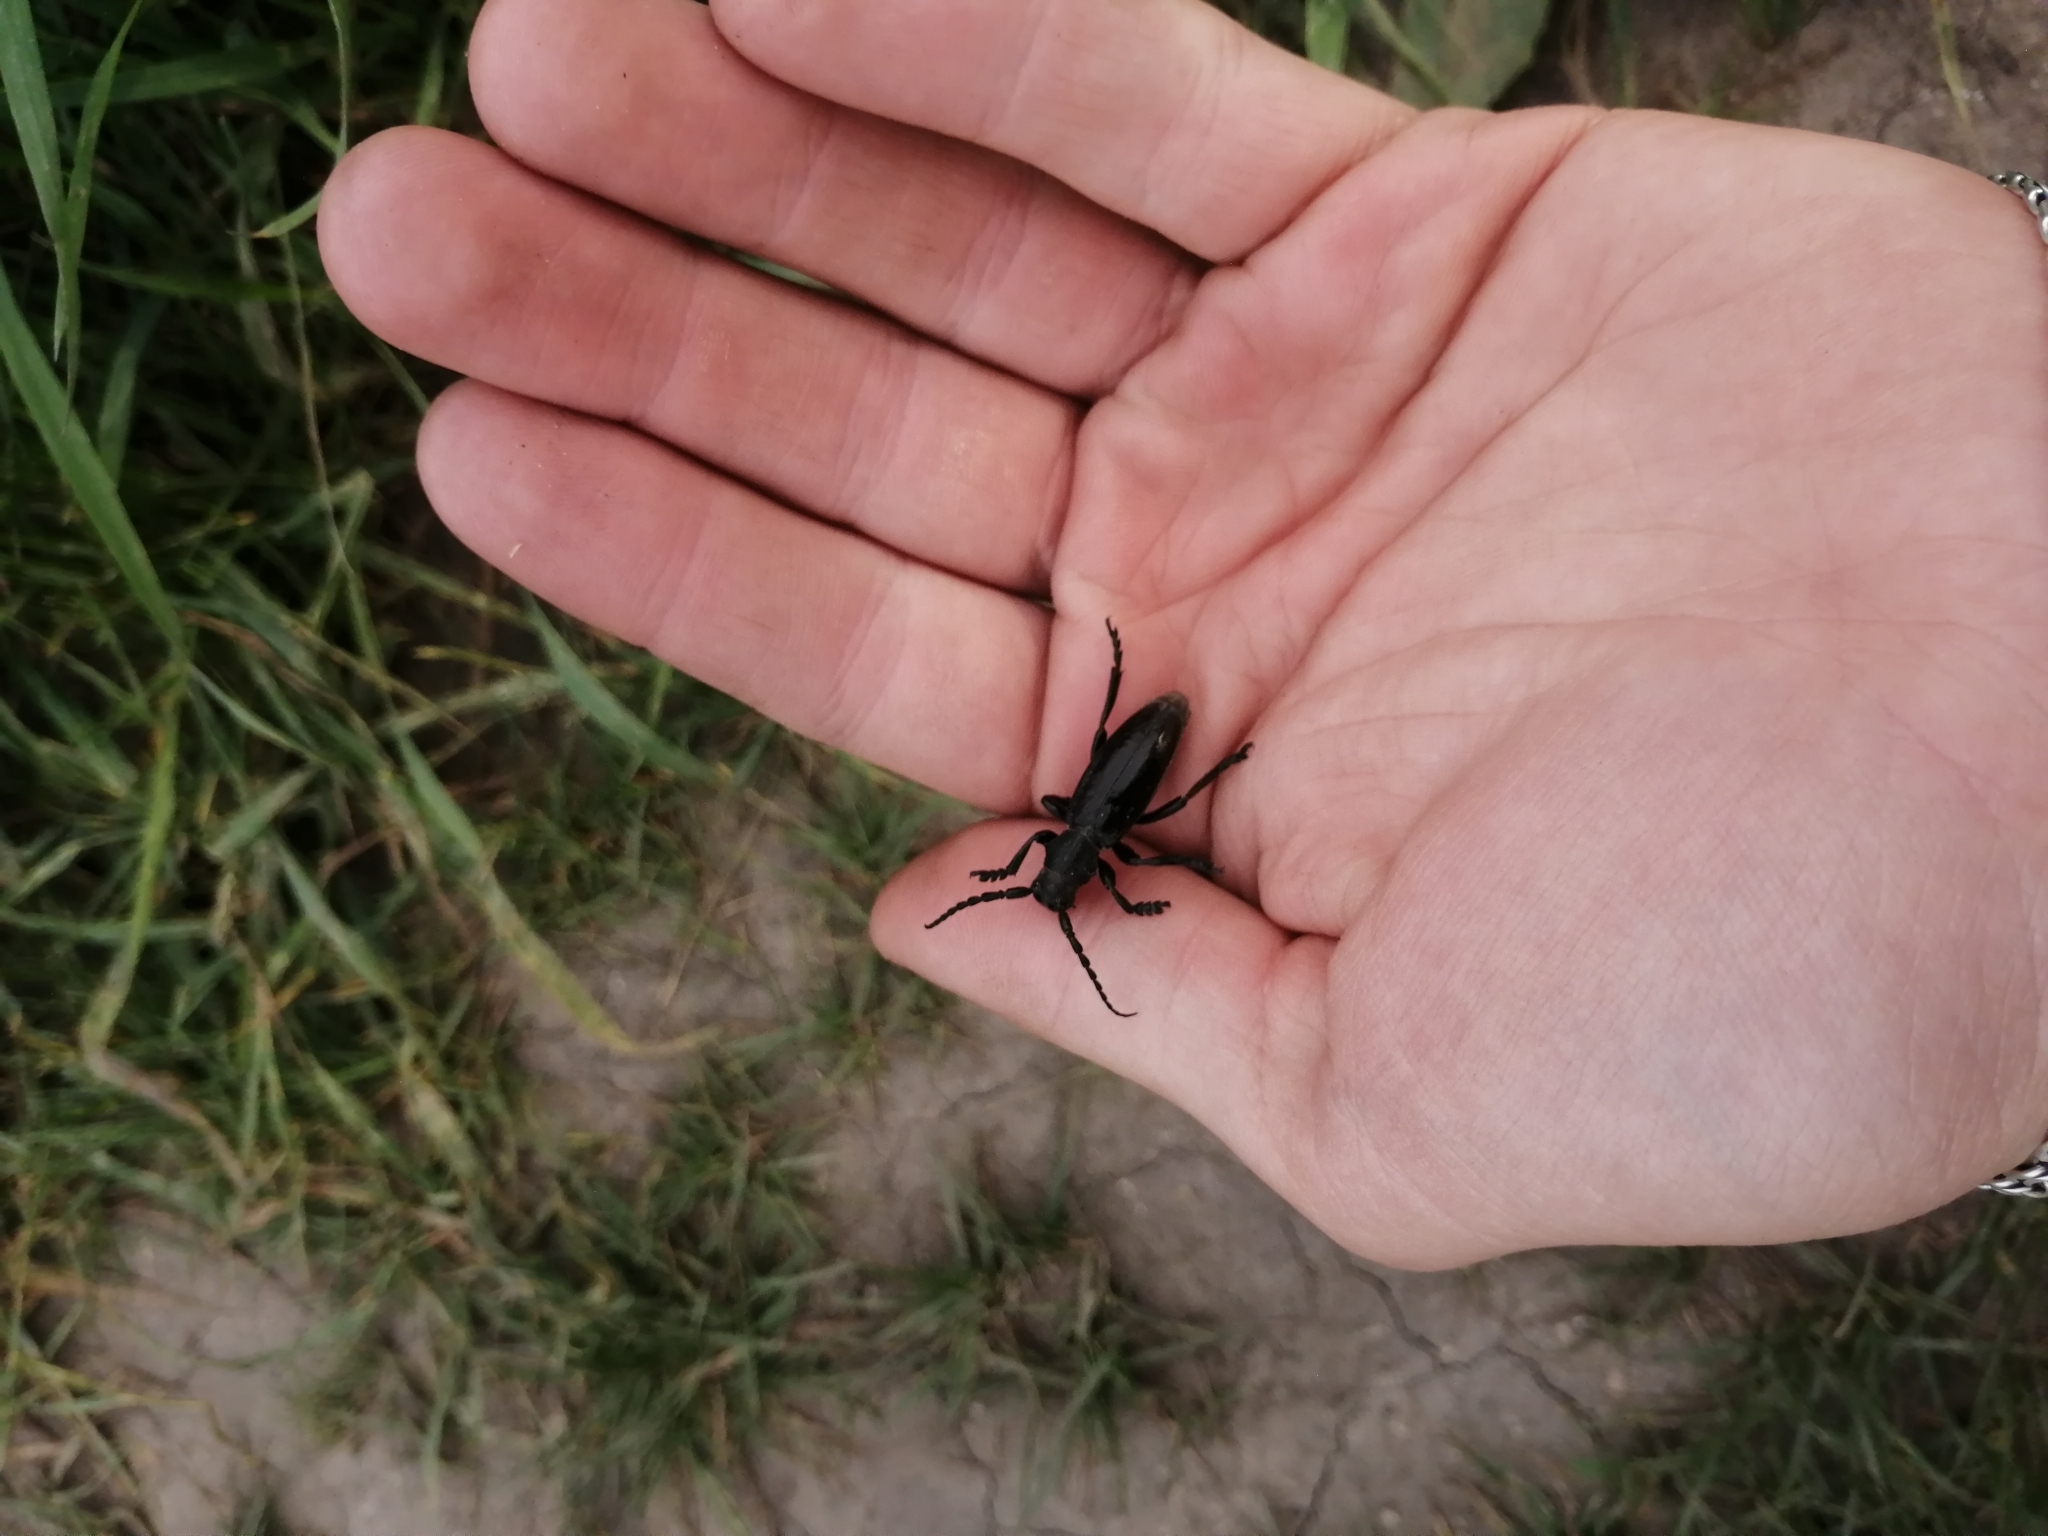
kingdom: Animalia
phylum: Arthropoda
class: Insecta
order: Coleoptera
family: Cerambycidae
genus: Dorcadion
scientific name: Dorcadion carinatum
